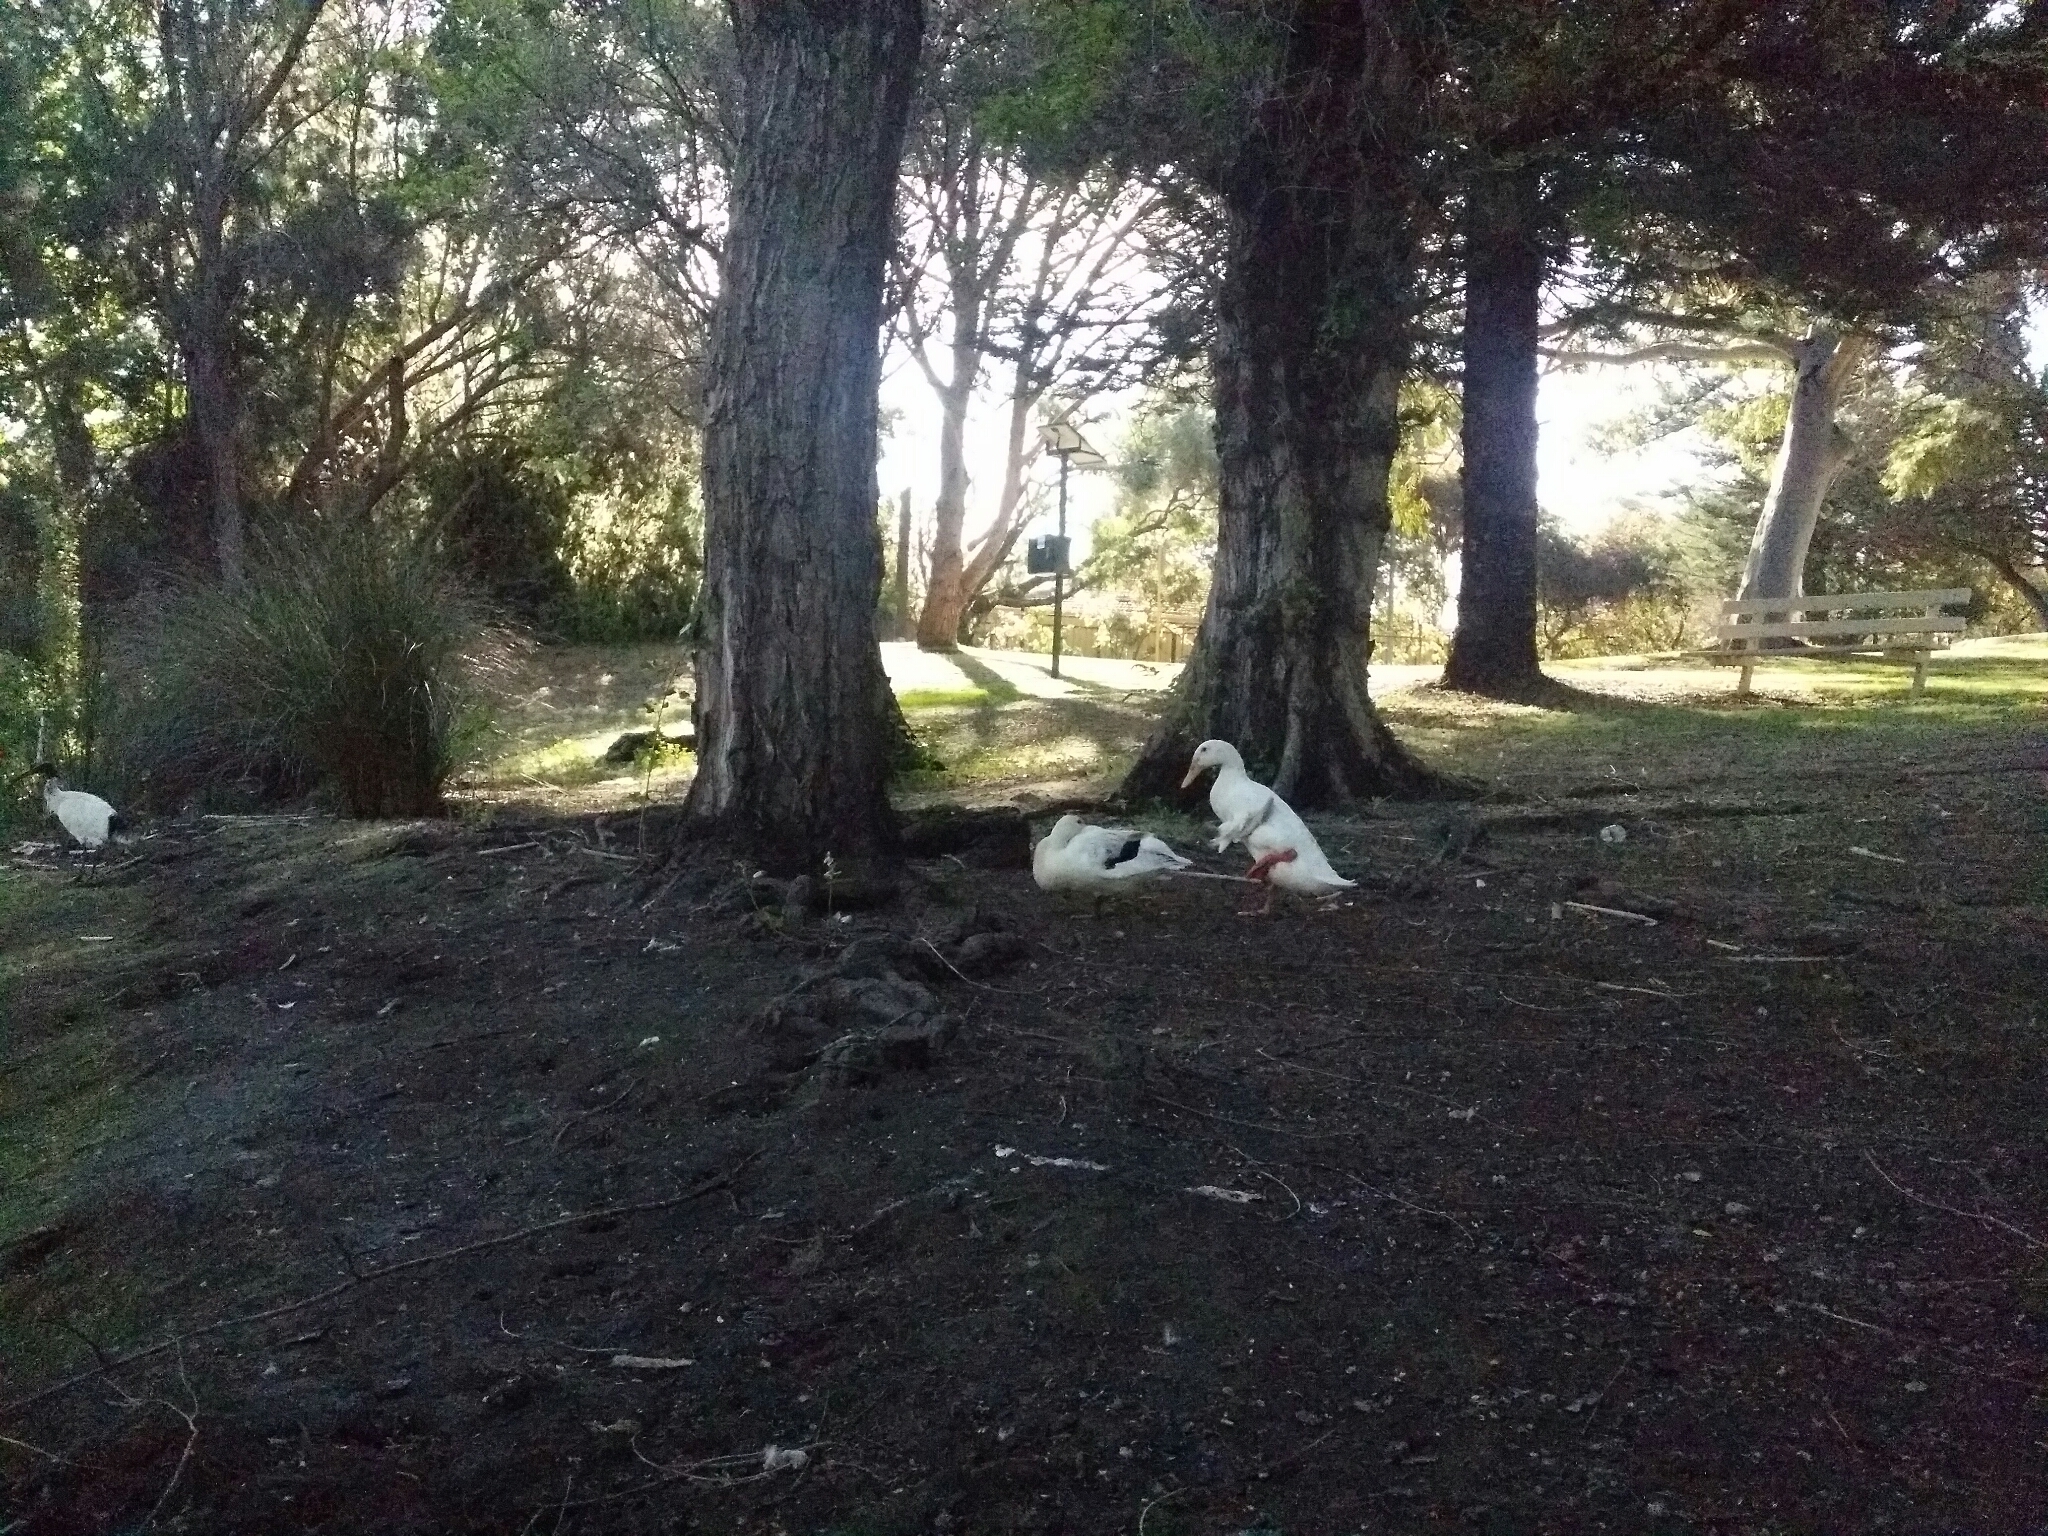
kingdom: Animalia
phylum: Chordata
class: Aves
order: Anseriformes
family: Anatidae
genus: Anas
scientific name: Anas platyrhynchos
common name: Mallard
